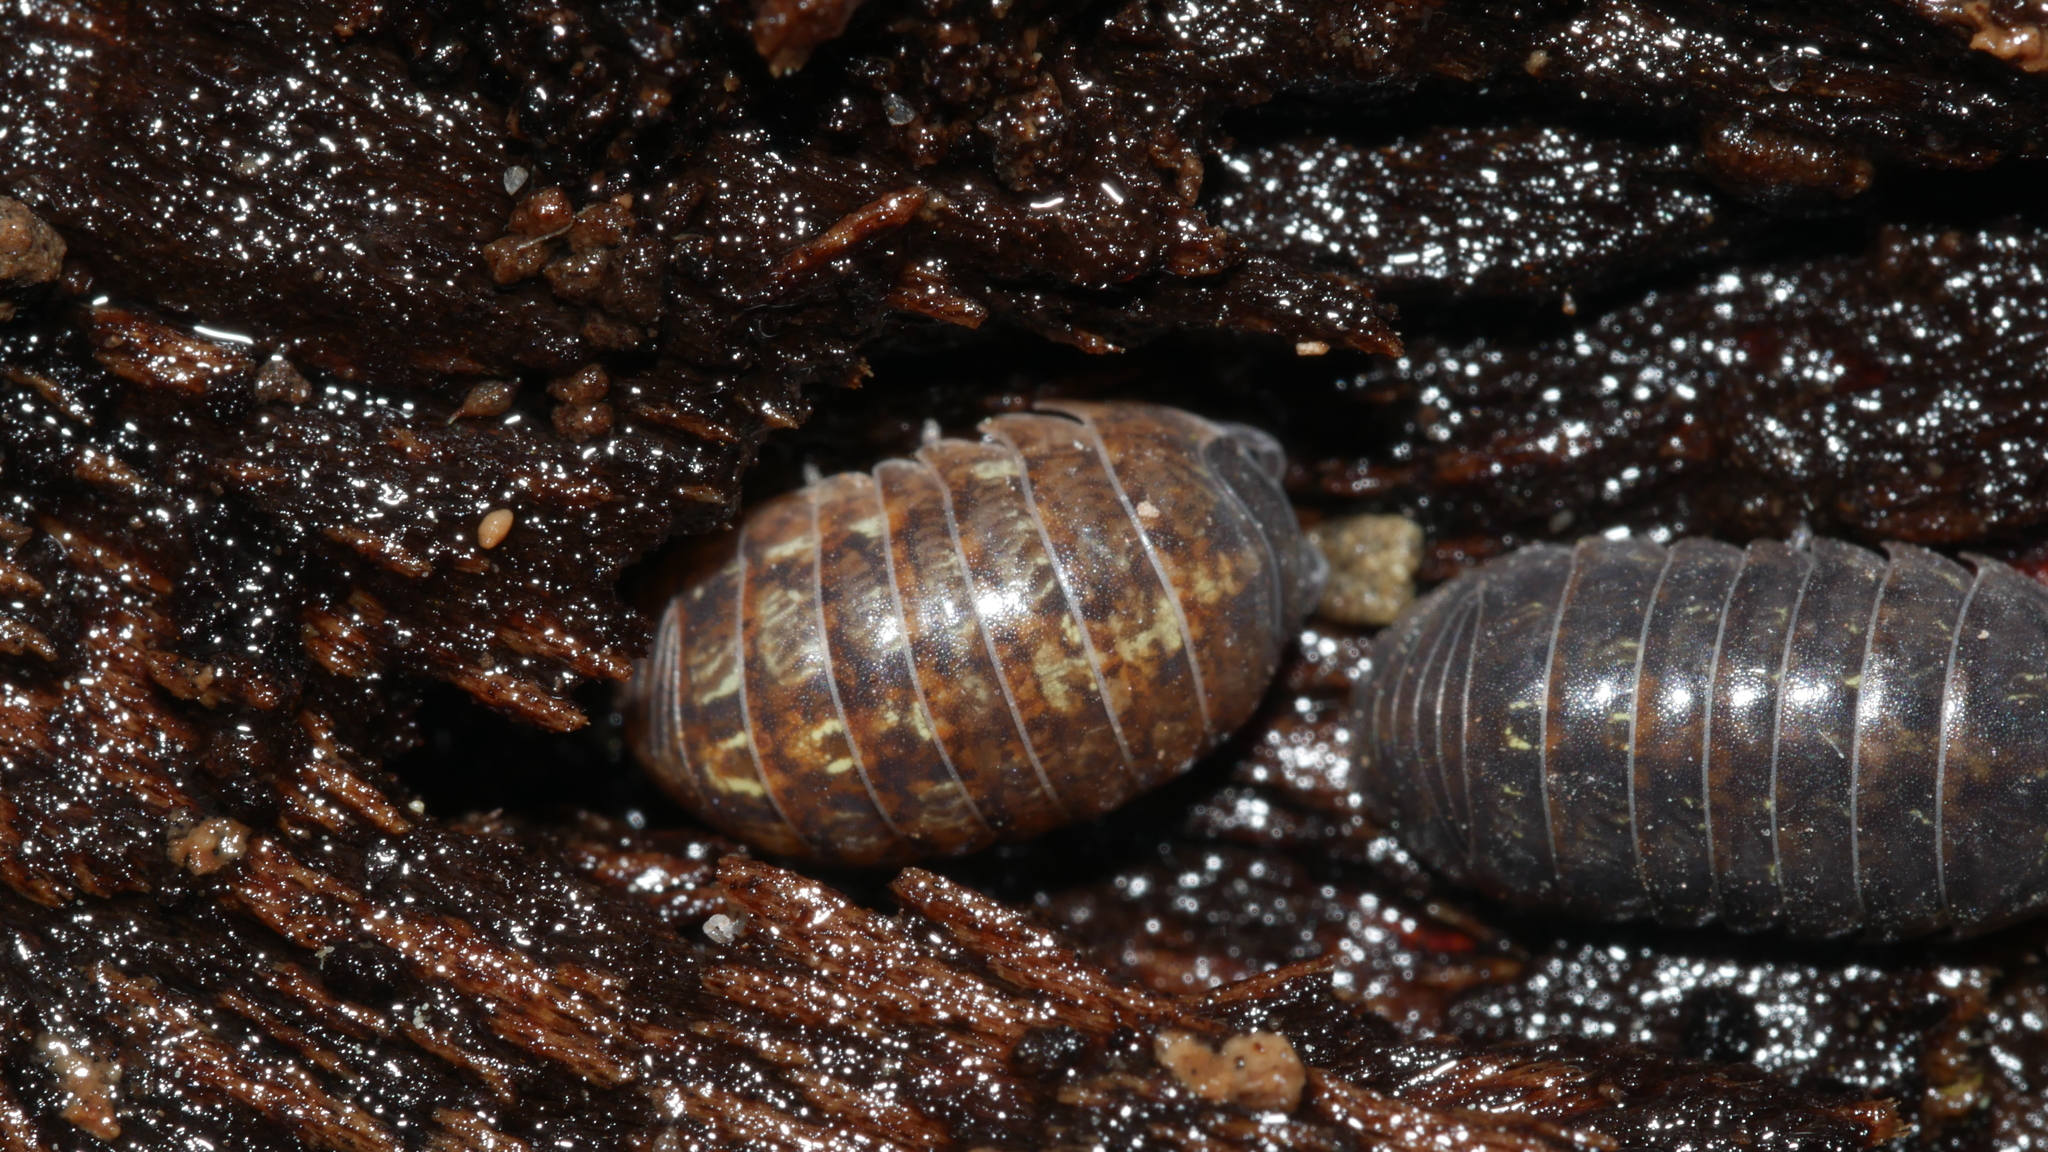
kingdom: Animalia
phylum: Arthropoda
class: Malacostraca
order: Isopoda
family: Armadillidiidae
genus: Armadillidium
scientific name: Armadillidium vulgare
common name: Common pill woodlouse
